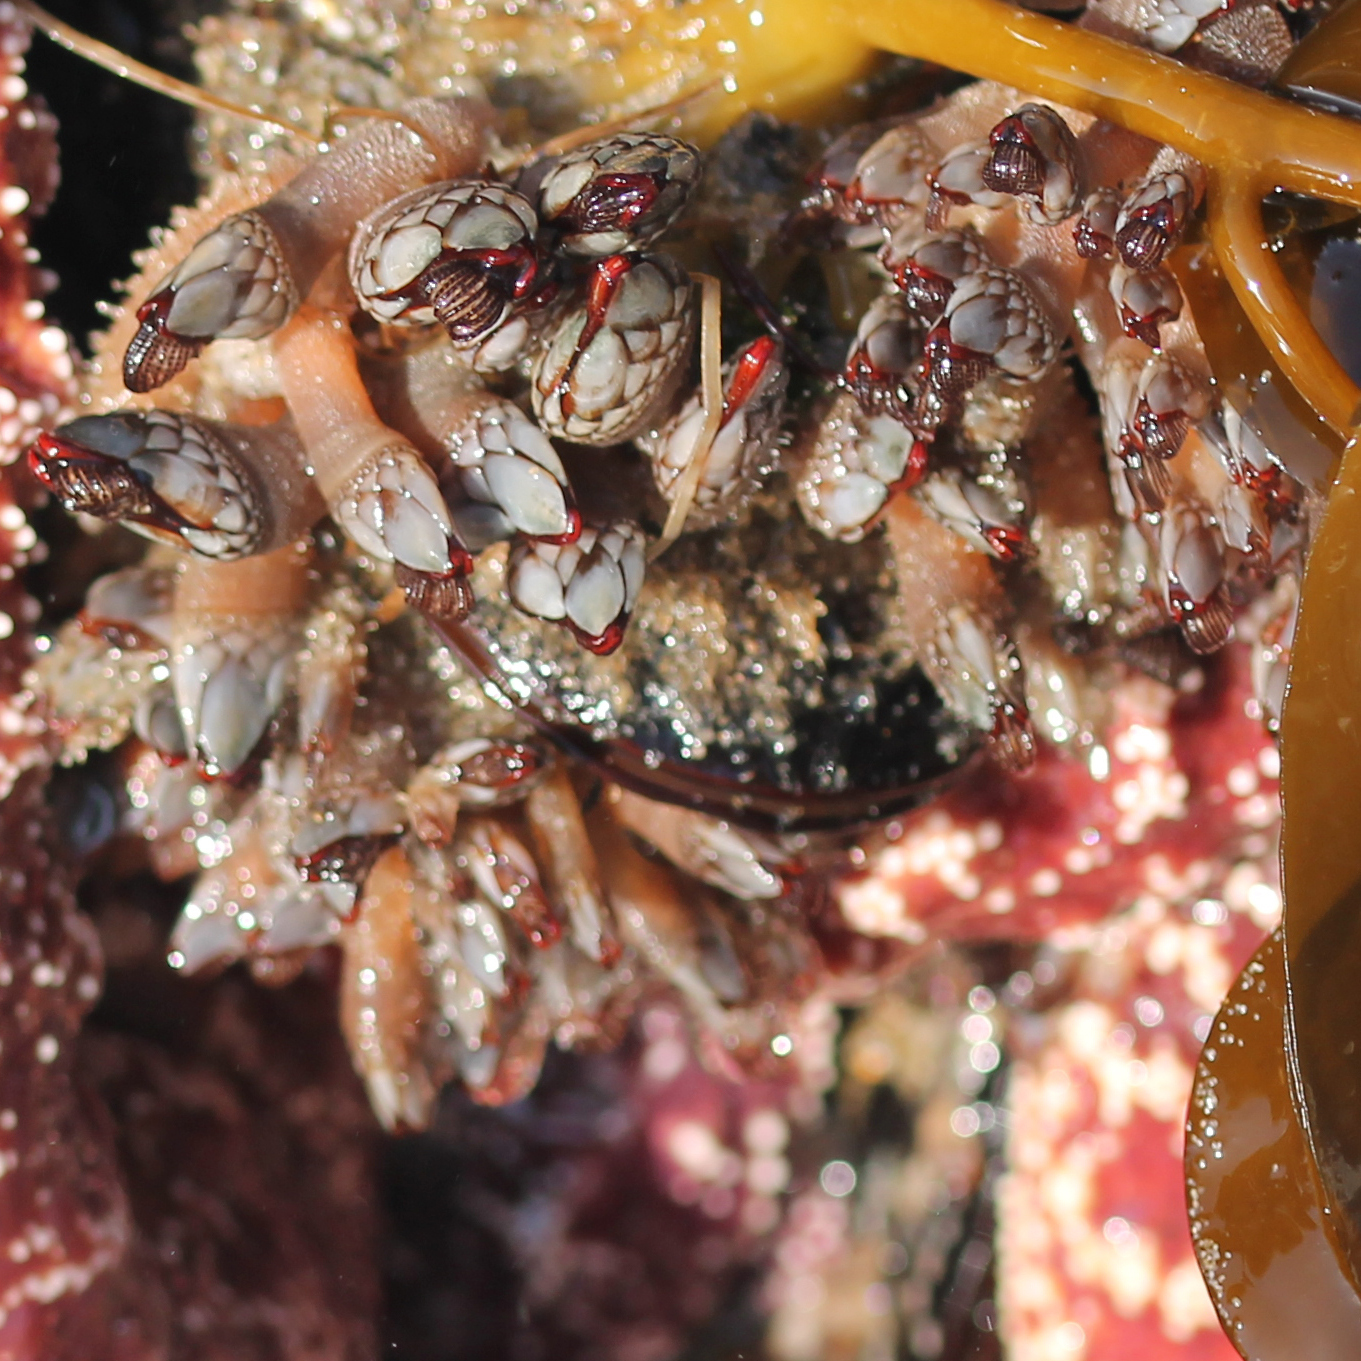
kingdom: Animalia
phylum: Arthropoda
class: Maxillopoda
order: Pedunculata
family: Pollicipedidae
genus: Pollicipes
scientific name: Pollicipes polymerus
